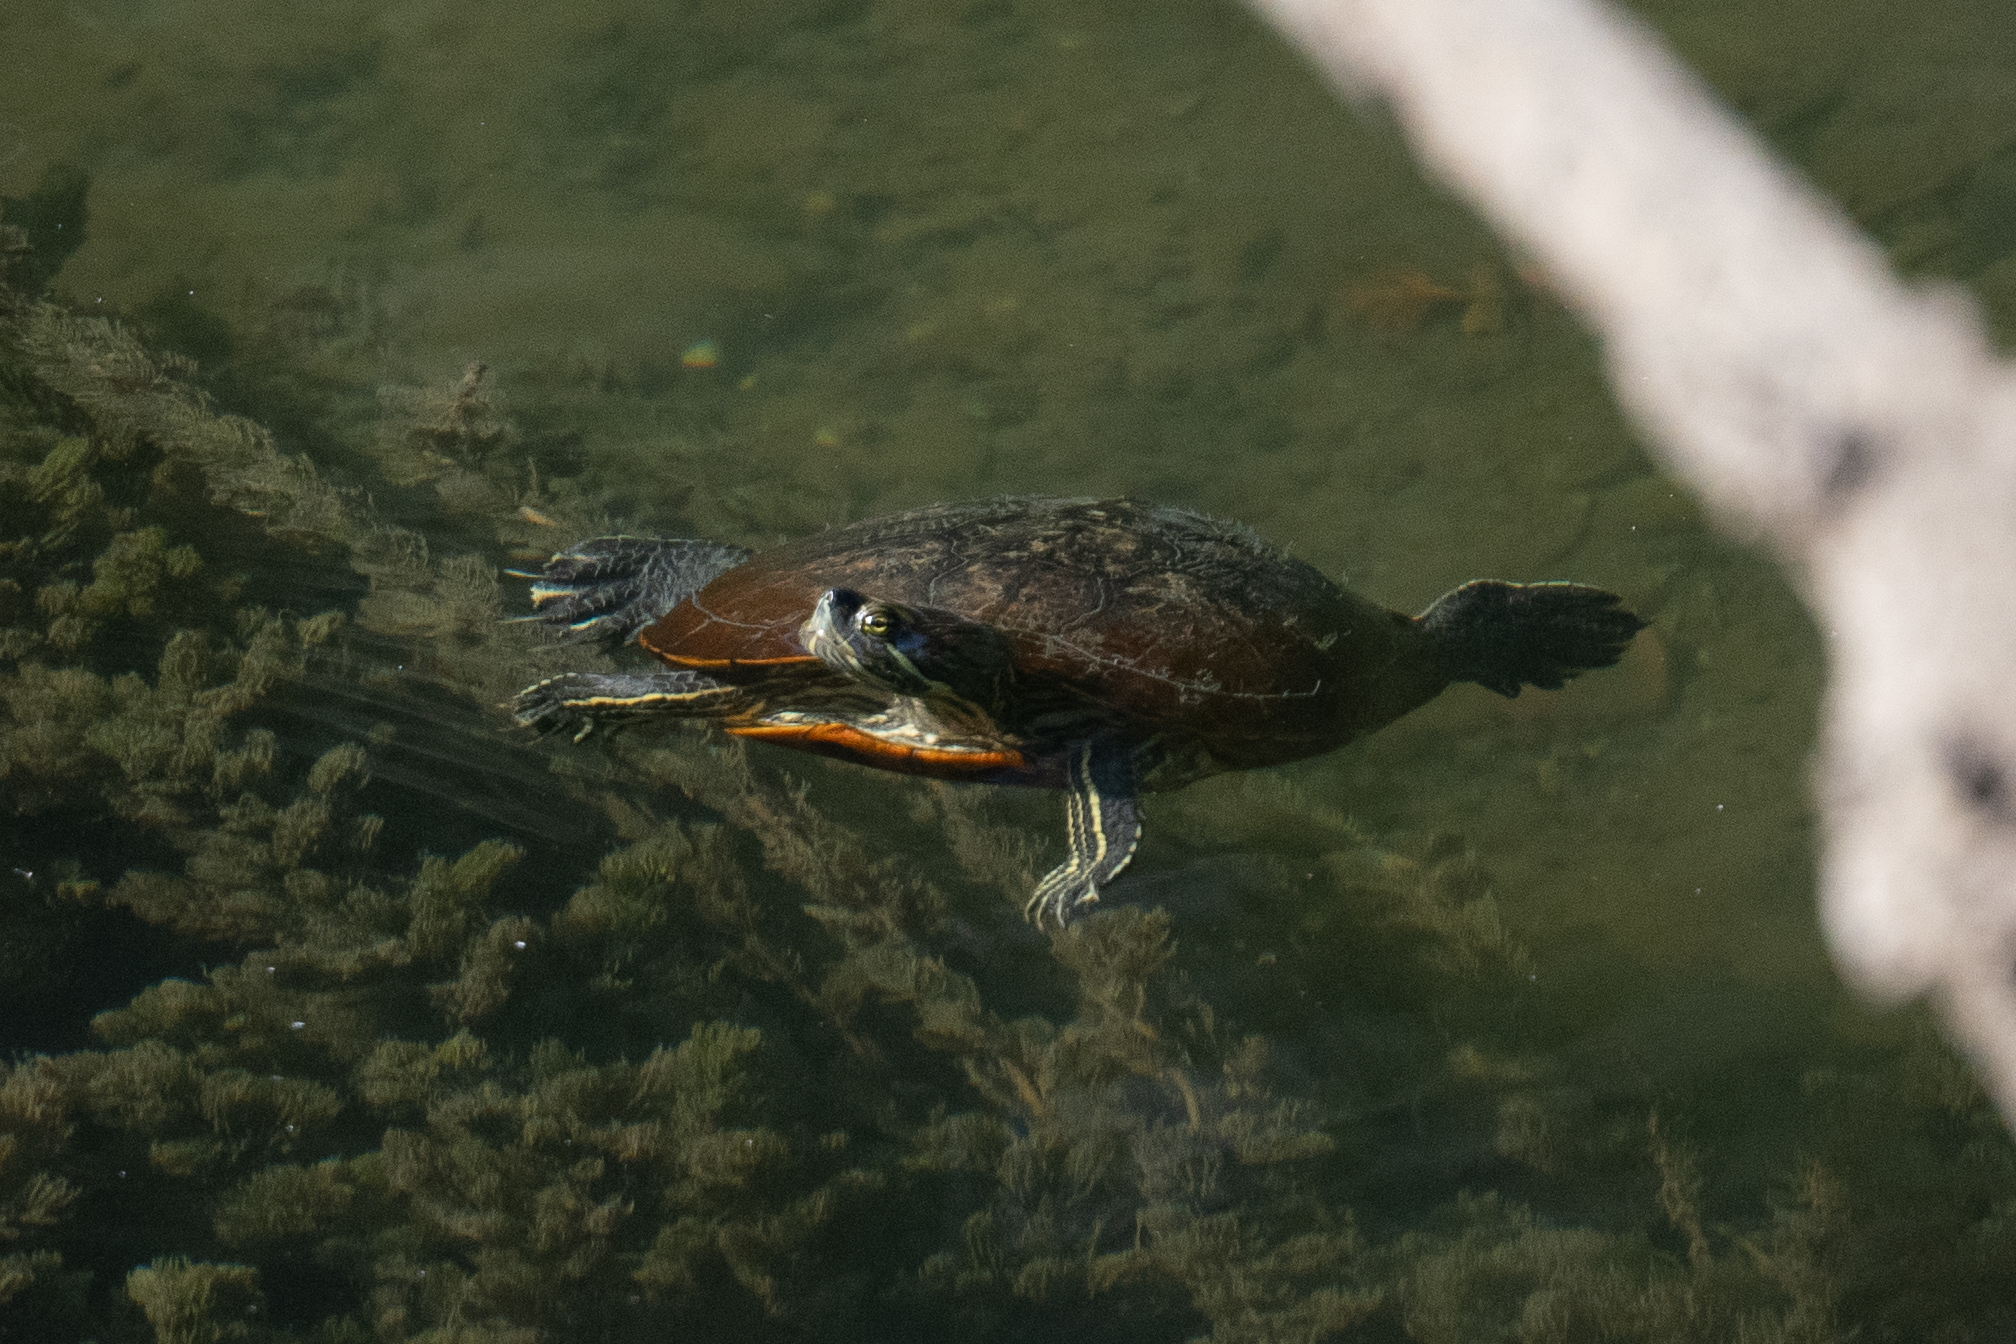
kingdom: Animalia
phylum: Chordata
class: Testudines
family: Emydidae
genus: Trachemys
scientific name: Trachemys scripta
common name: Slider
